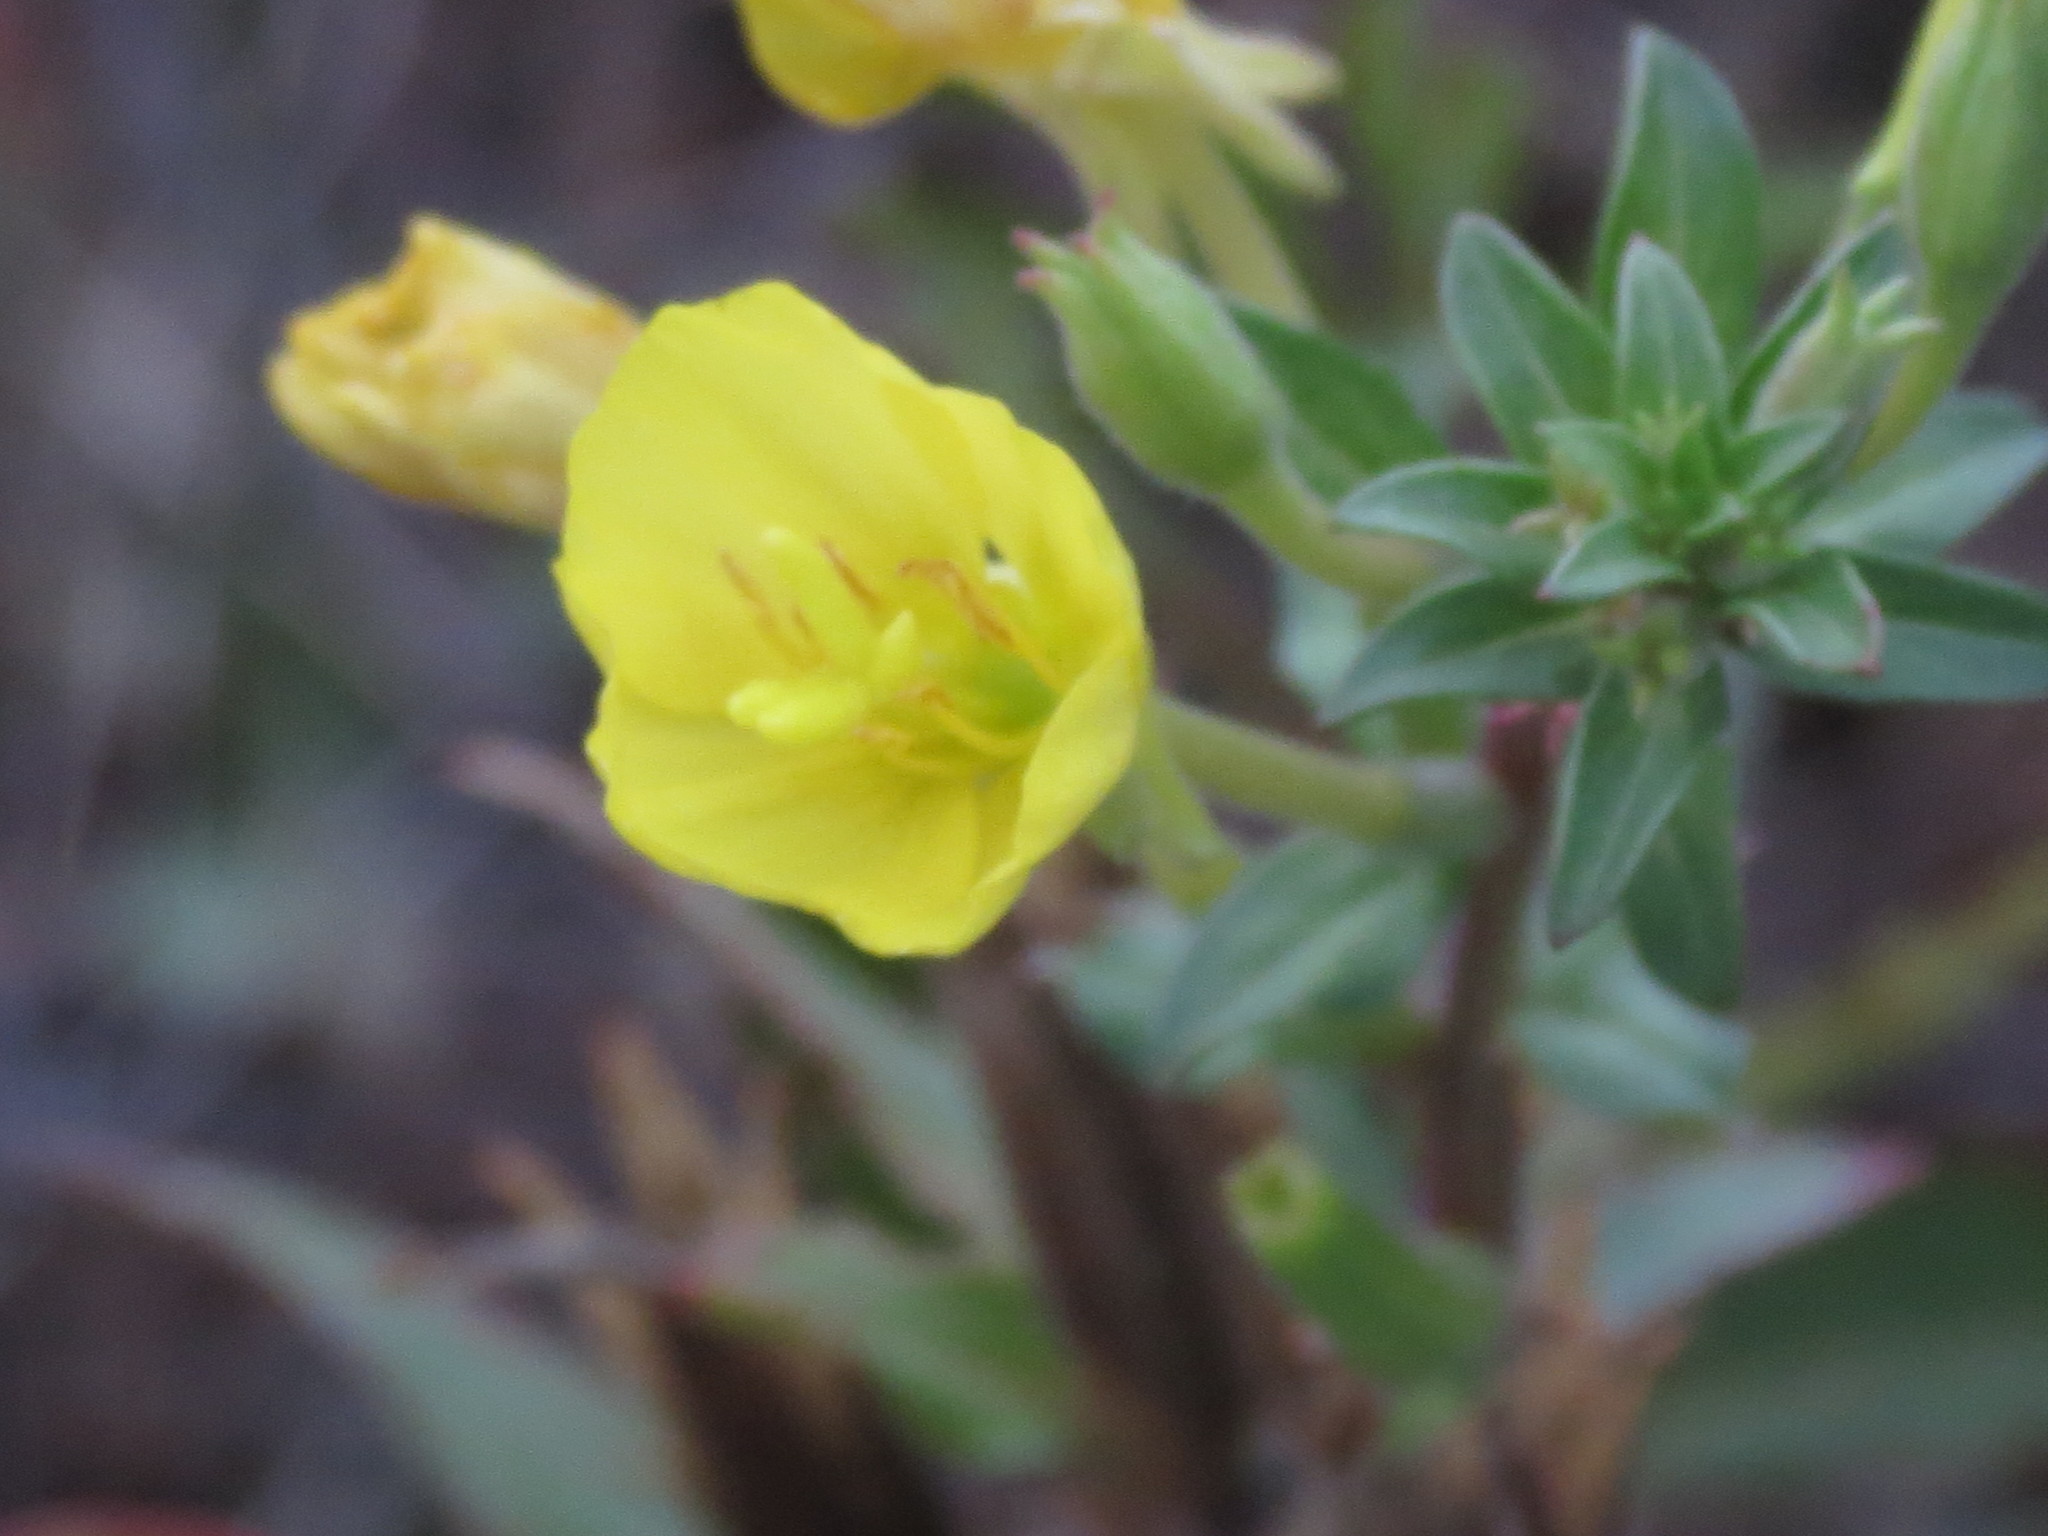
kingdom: Plantae
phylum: Tracheophyta
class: Magnoliopsida
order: Myrtales
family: Onagraceae
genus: Oenothera
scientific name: Oenothera oakesiana
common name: Oakes' evening-primrose
